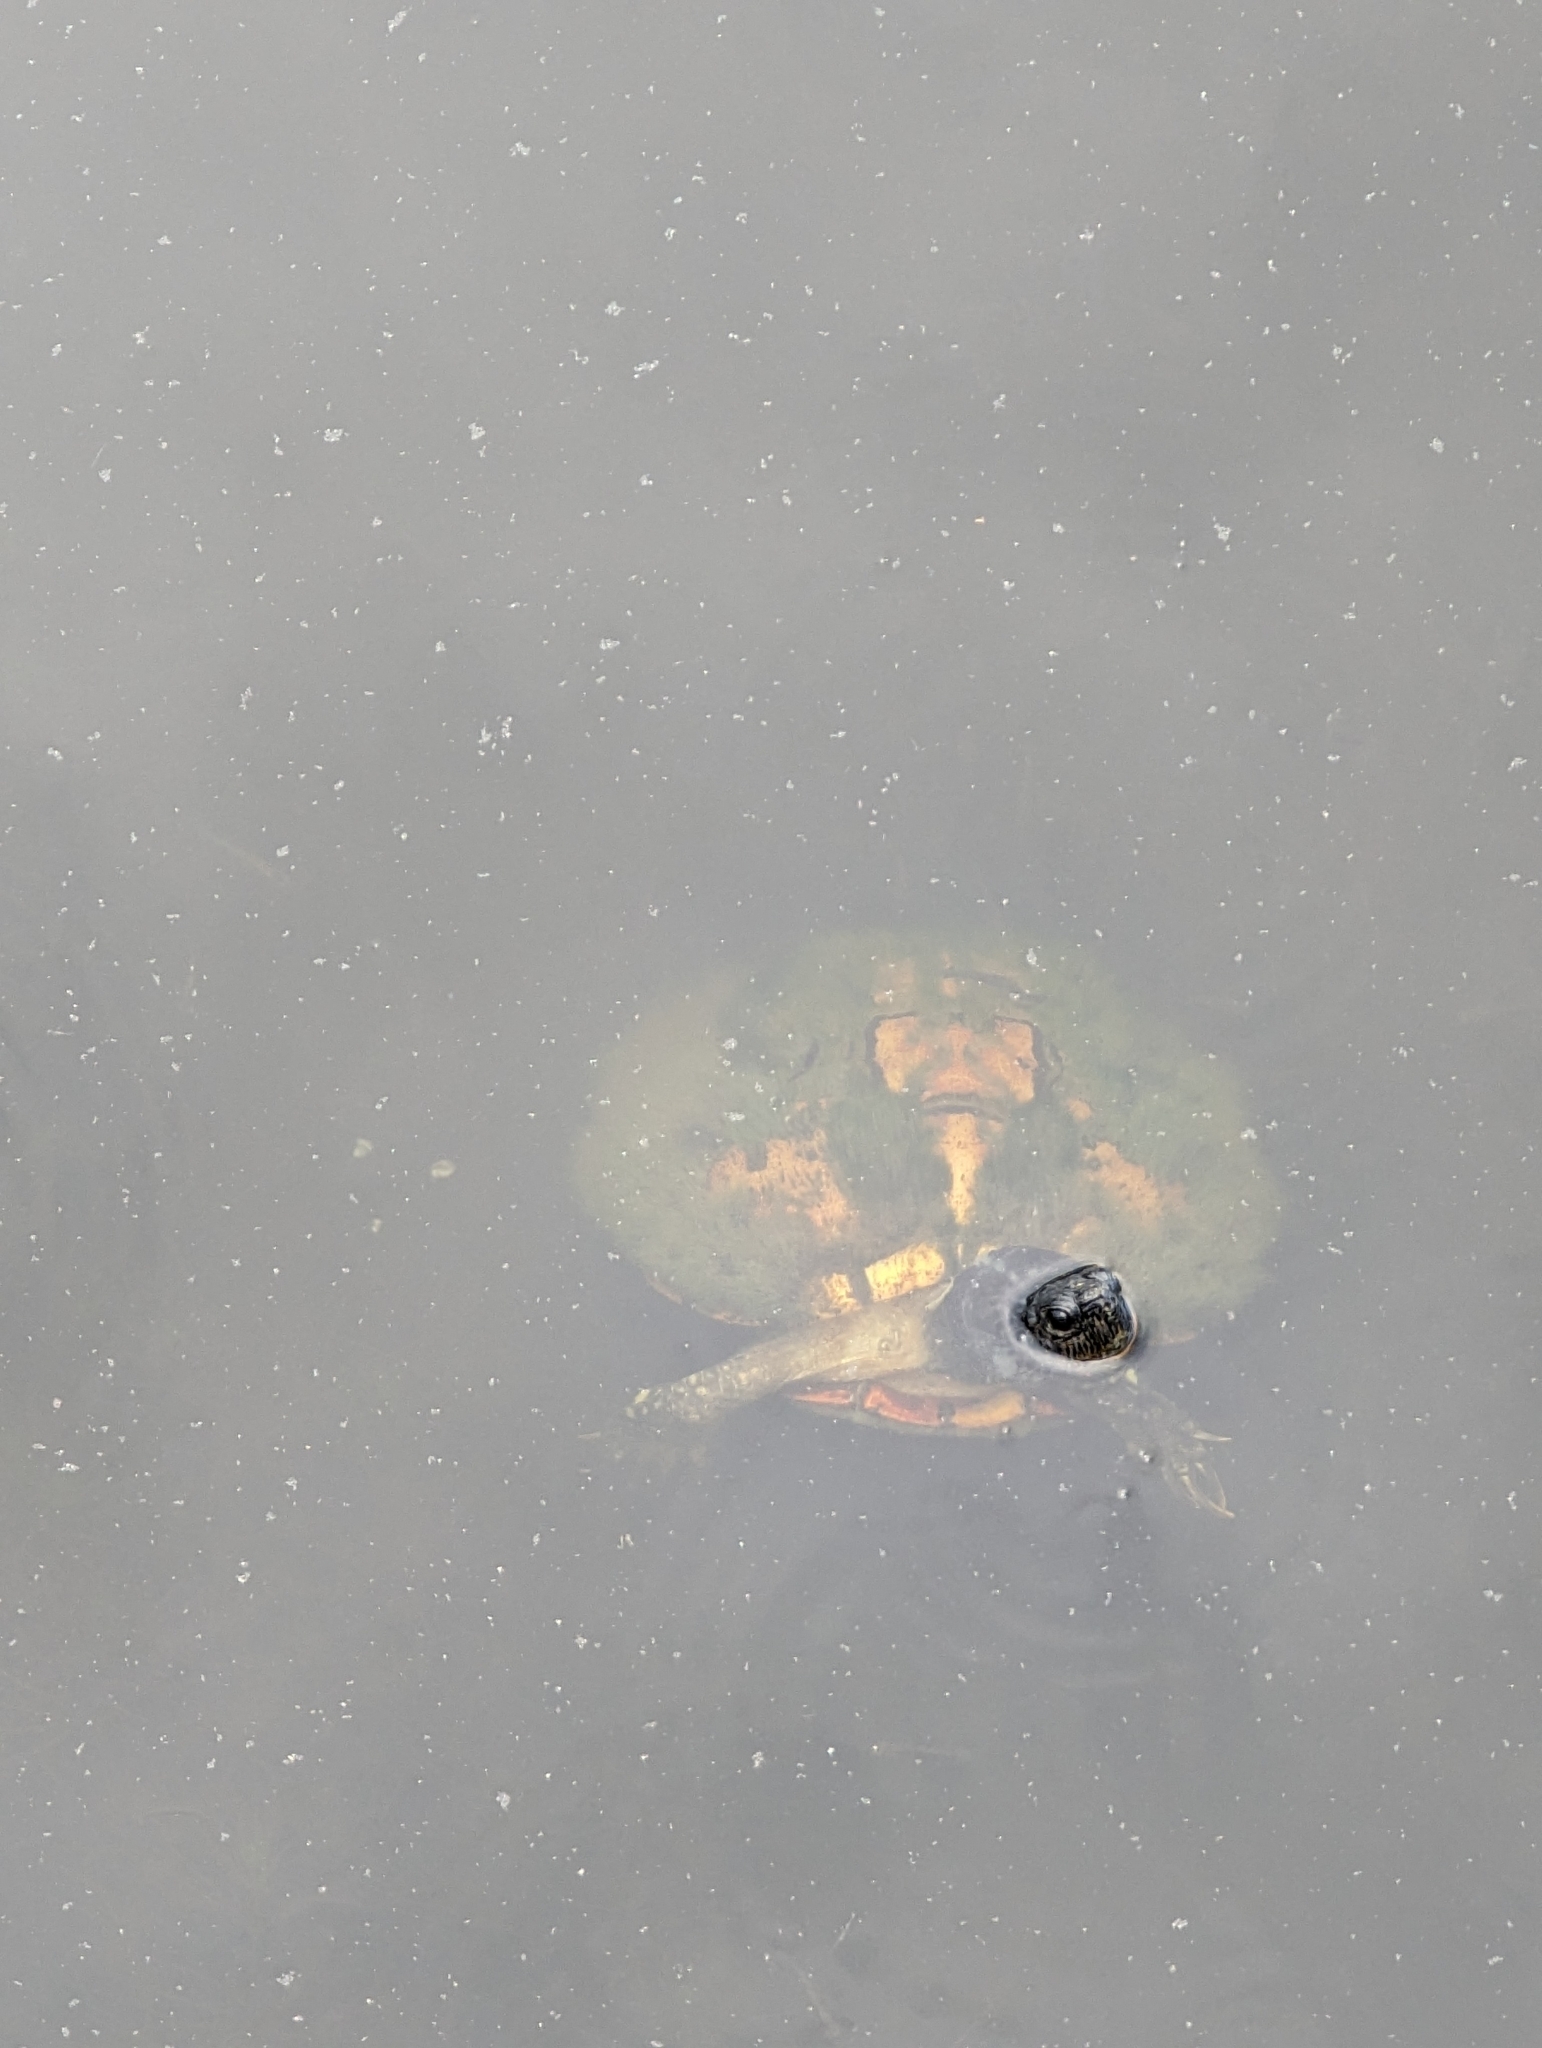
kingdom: Animalia
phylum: Chordata
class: Testudines
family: Emydidae
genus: Trachemys
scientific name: Trachemys scripta
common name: Slider
